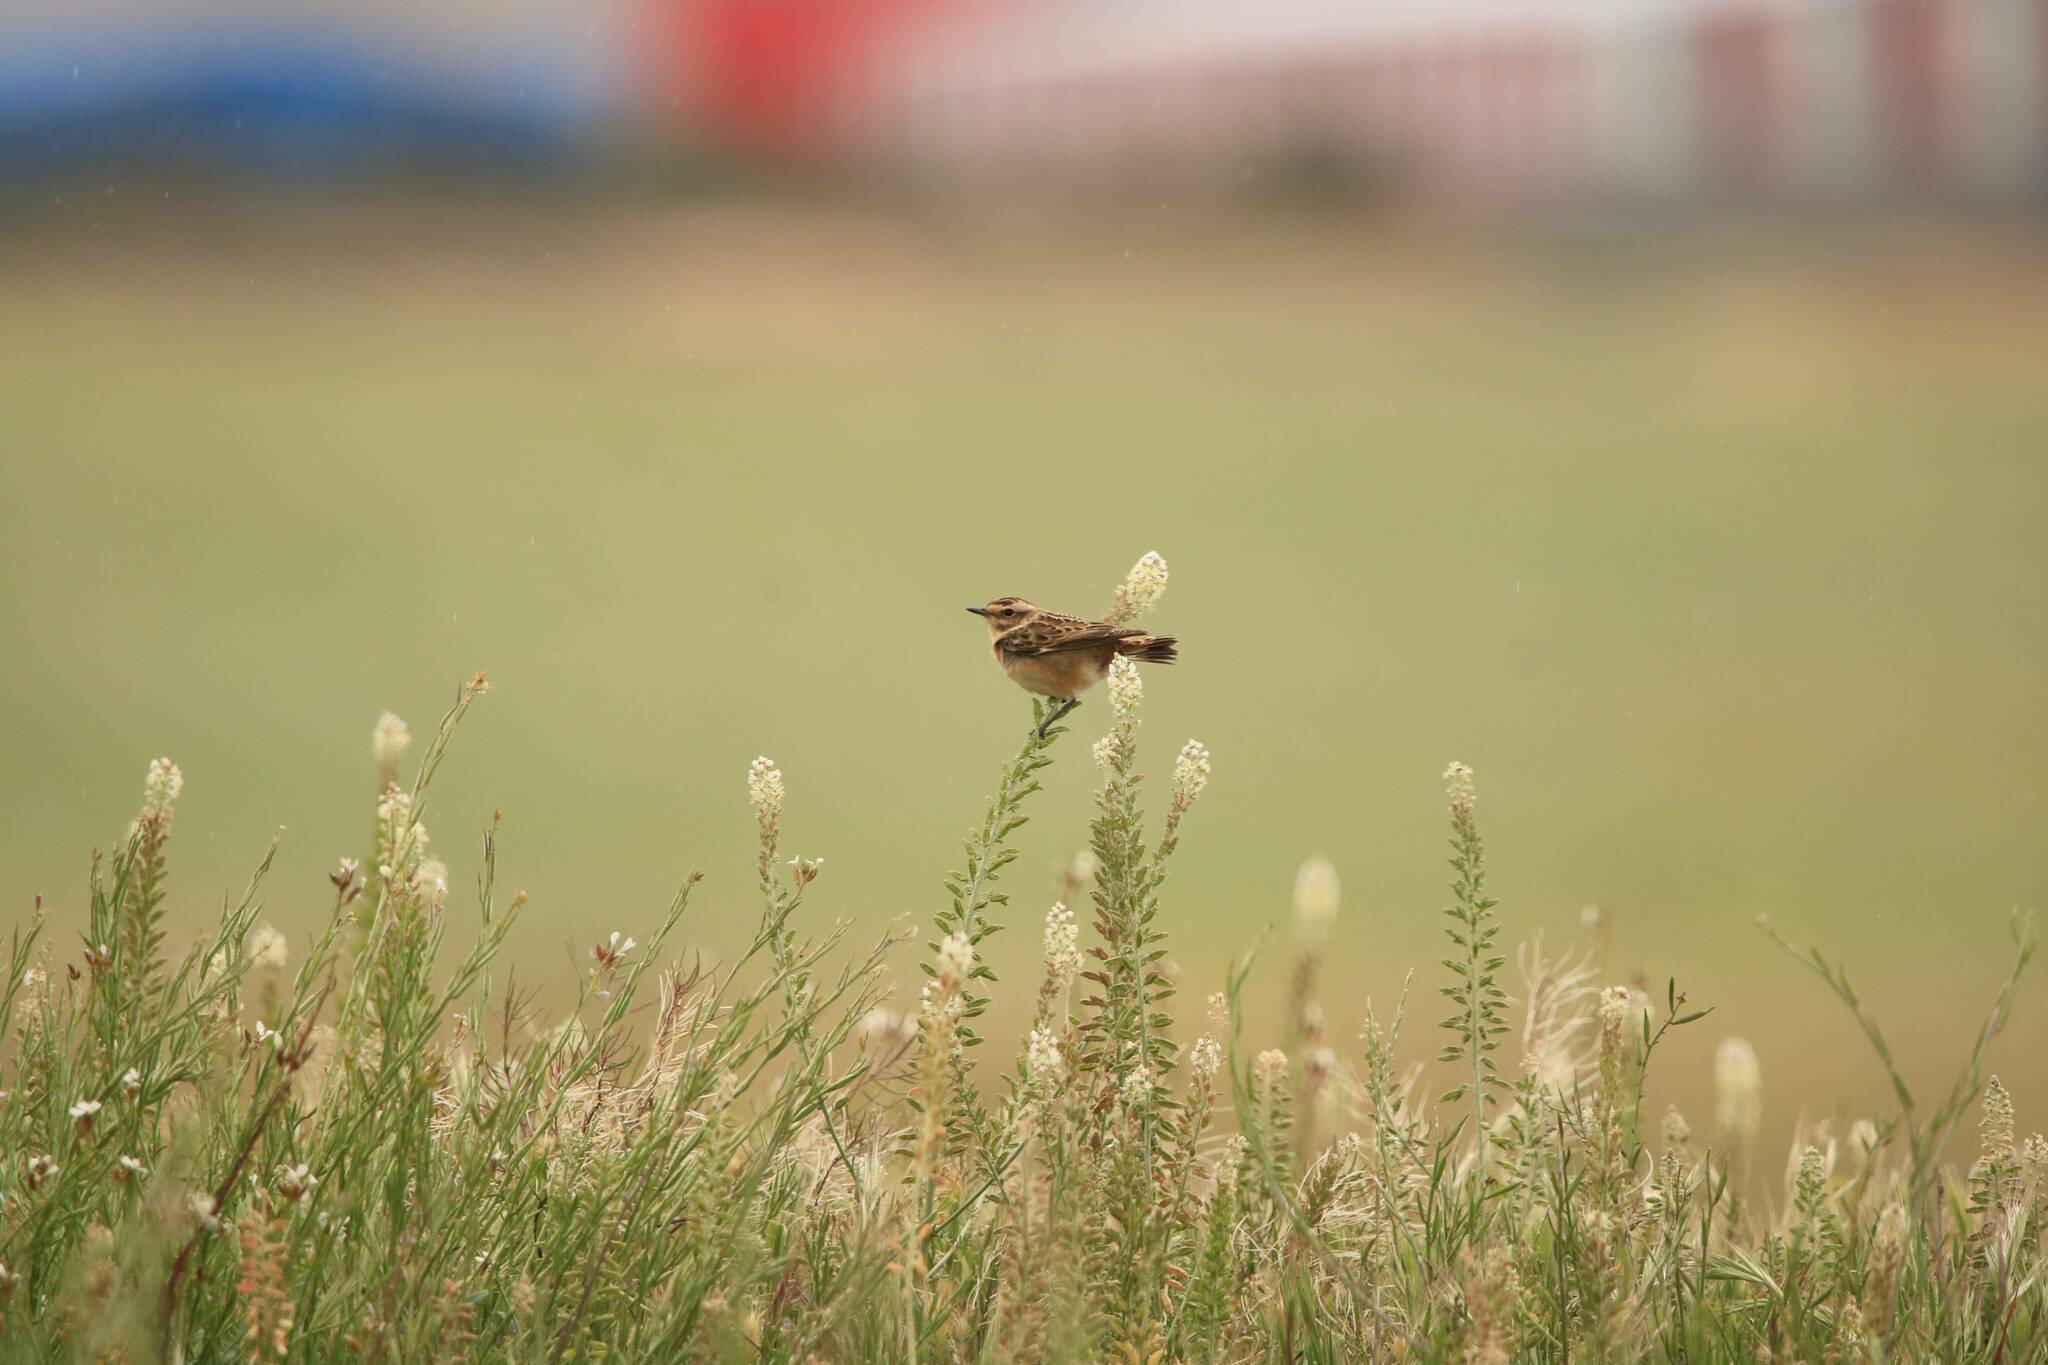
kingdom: Animalia
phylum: Chordata
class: Aves
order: Passeriformes
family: Muscicapidae
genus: Saxicola
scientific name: Saxicola rubetra
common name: Whinchat
